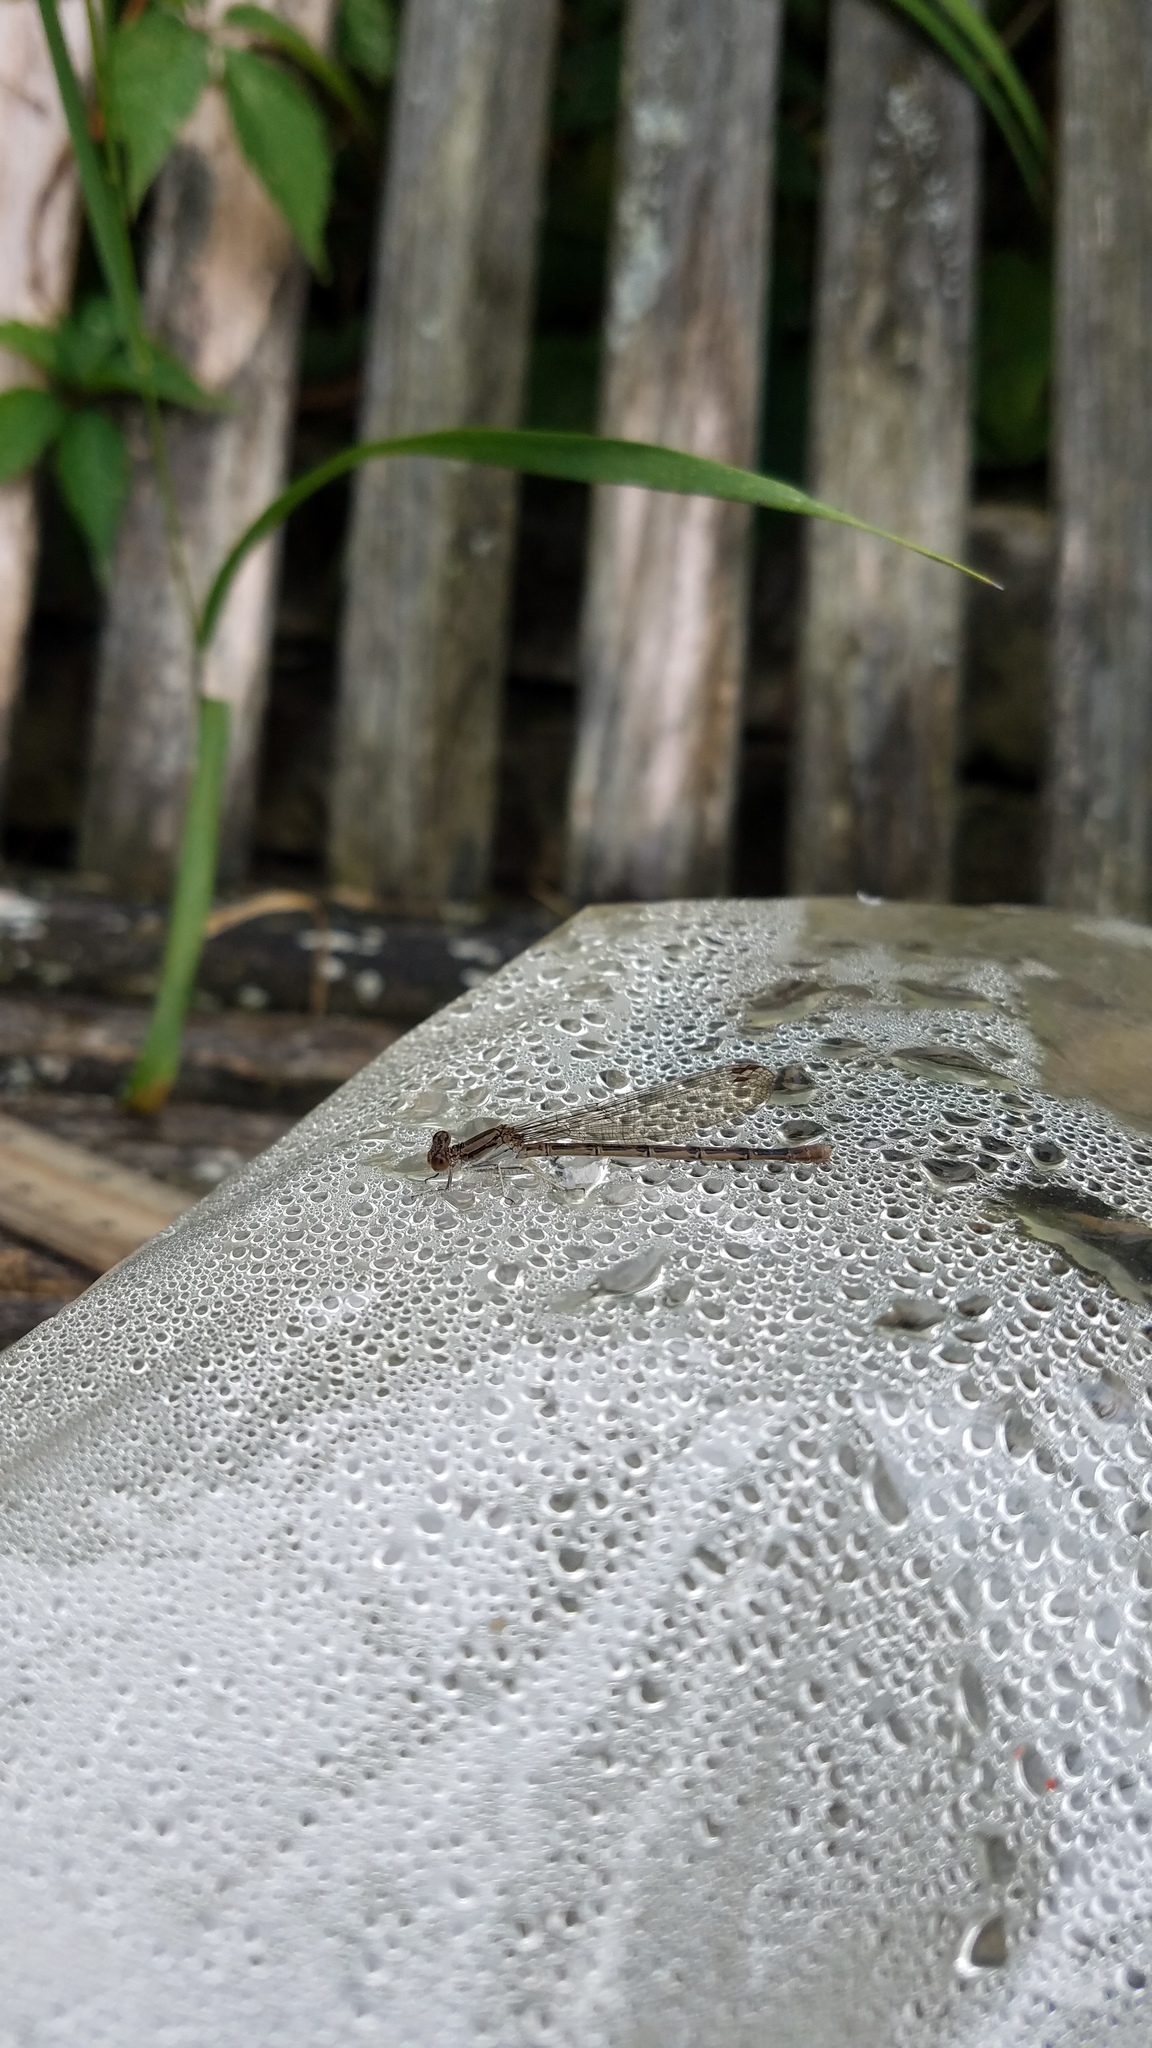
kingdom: Animalia
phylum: Arthropoda
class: Insecta
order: Odonata
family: Coenagrionidae
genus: Argia
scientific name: Argia fumipennis
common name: Variable dancer
